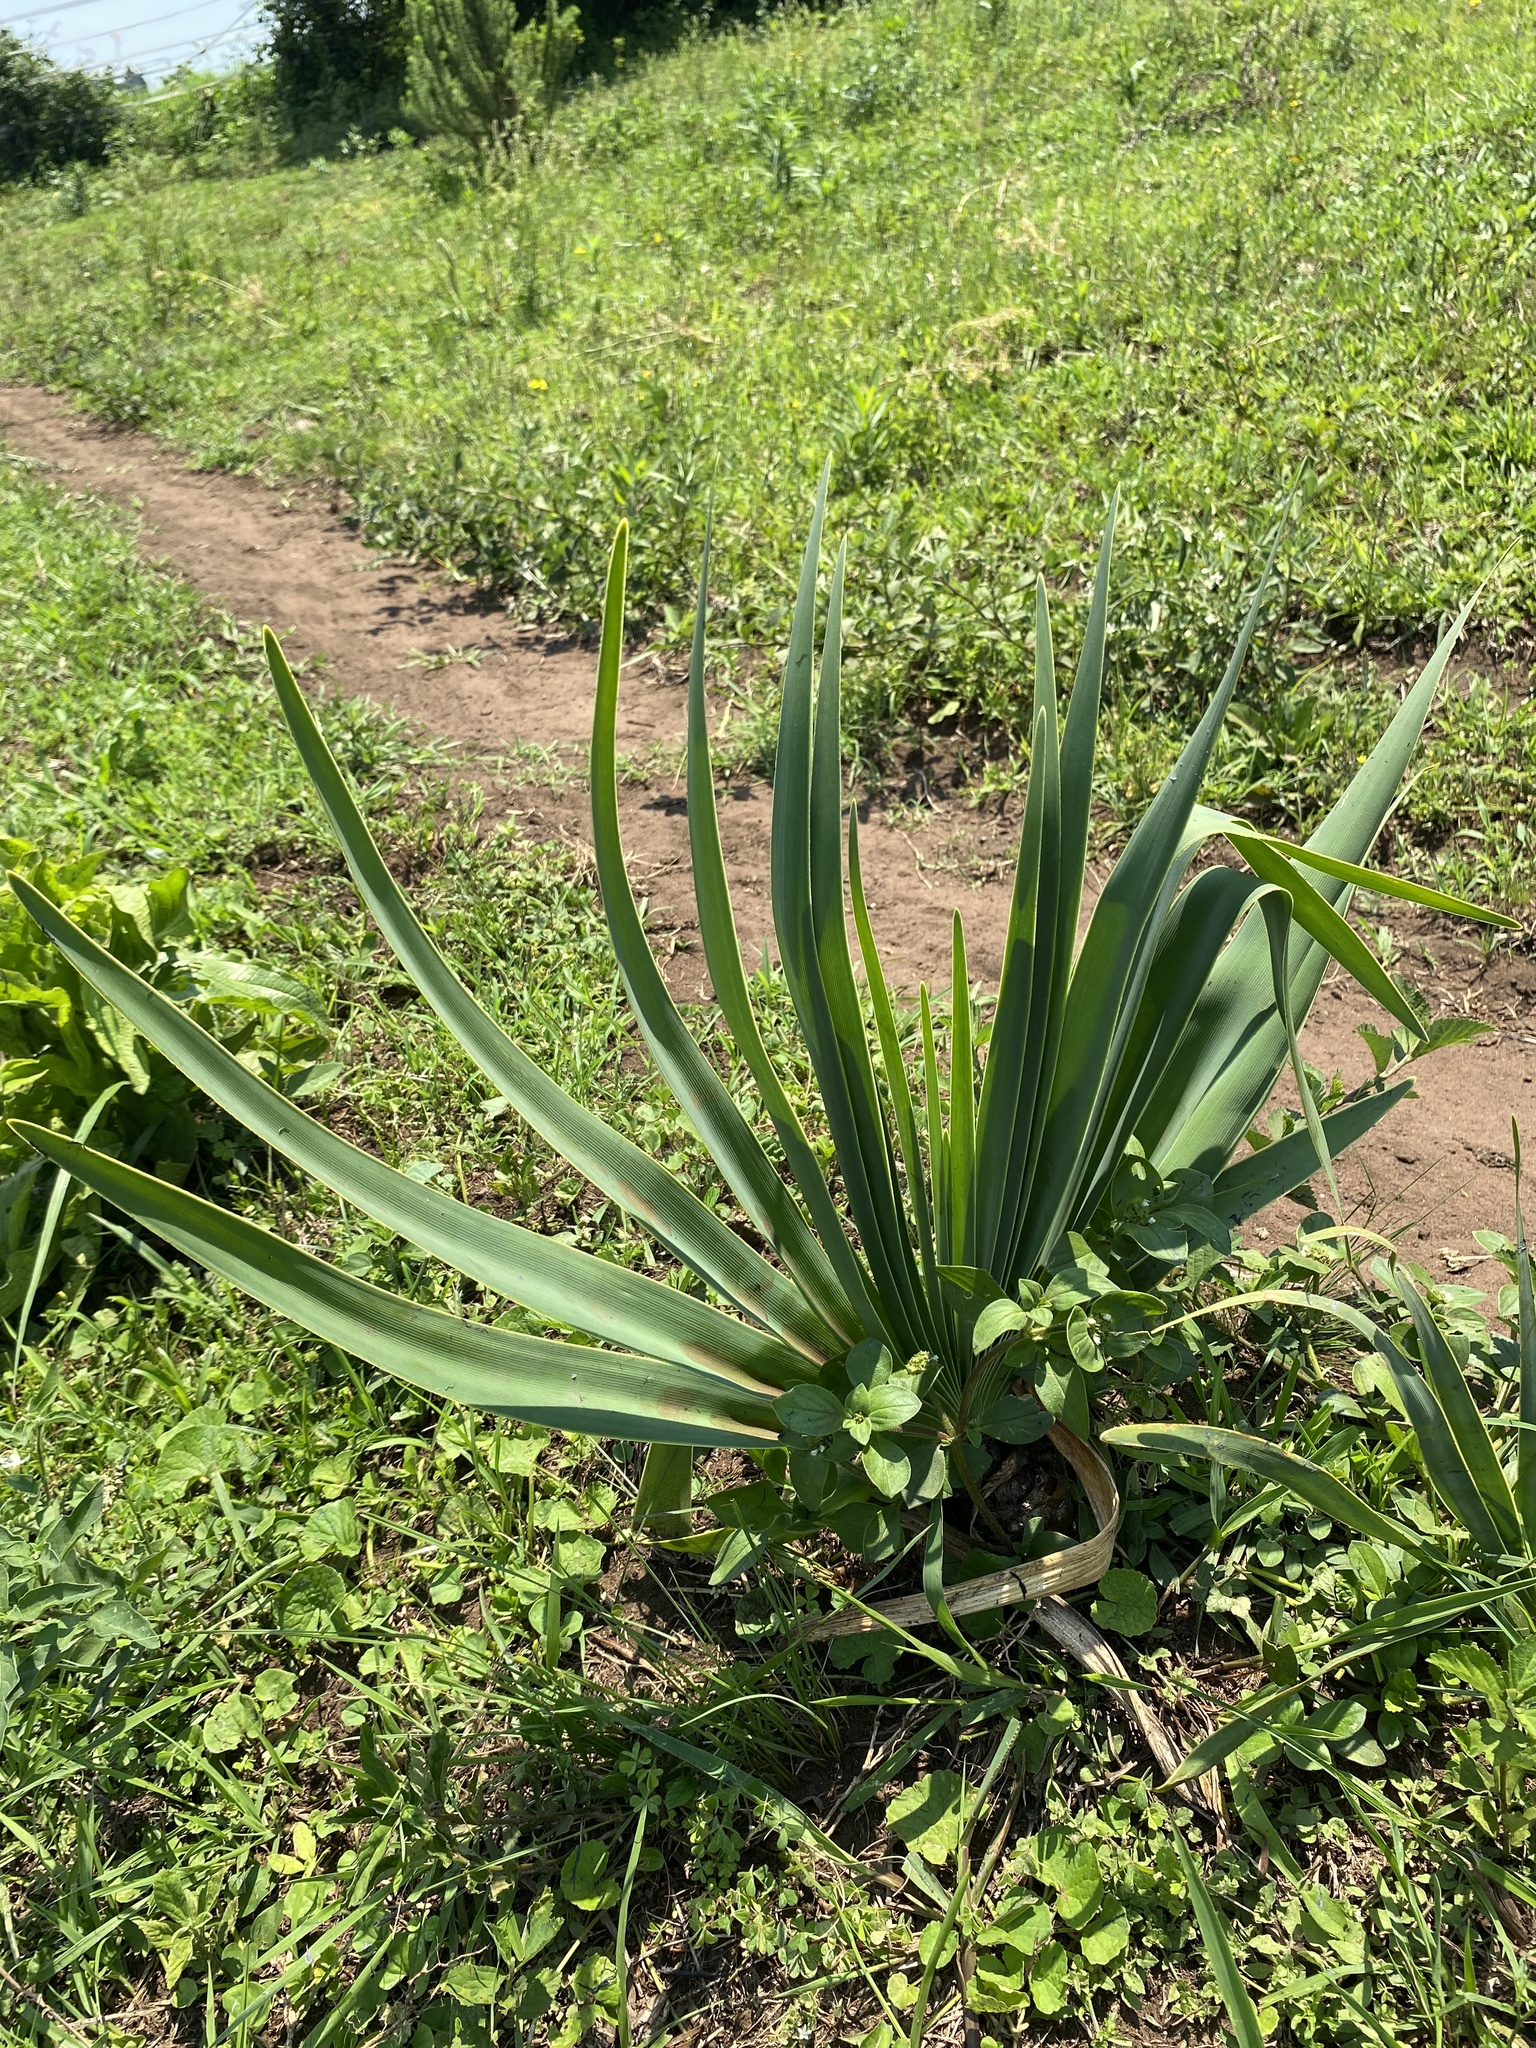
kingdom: Plantae
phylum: Tracheophyta
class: Liliopsida
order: Asparagales
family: Amaryllidaceae
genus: Boophone
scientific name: Boophone disticha
